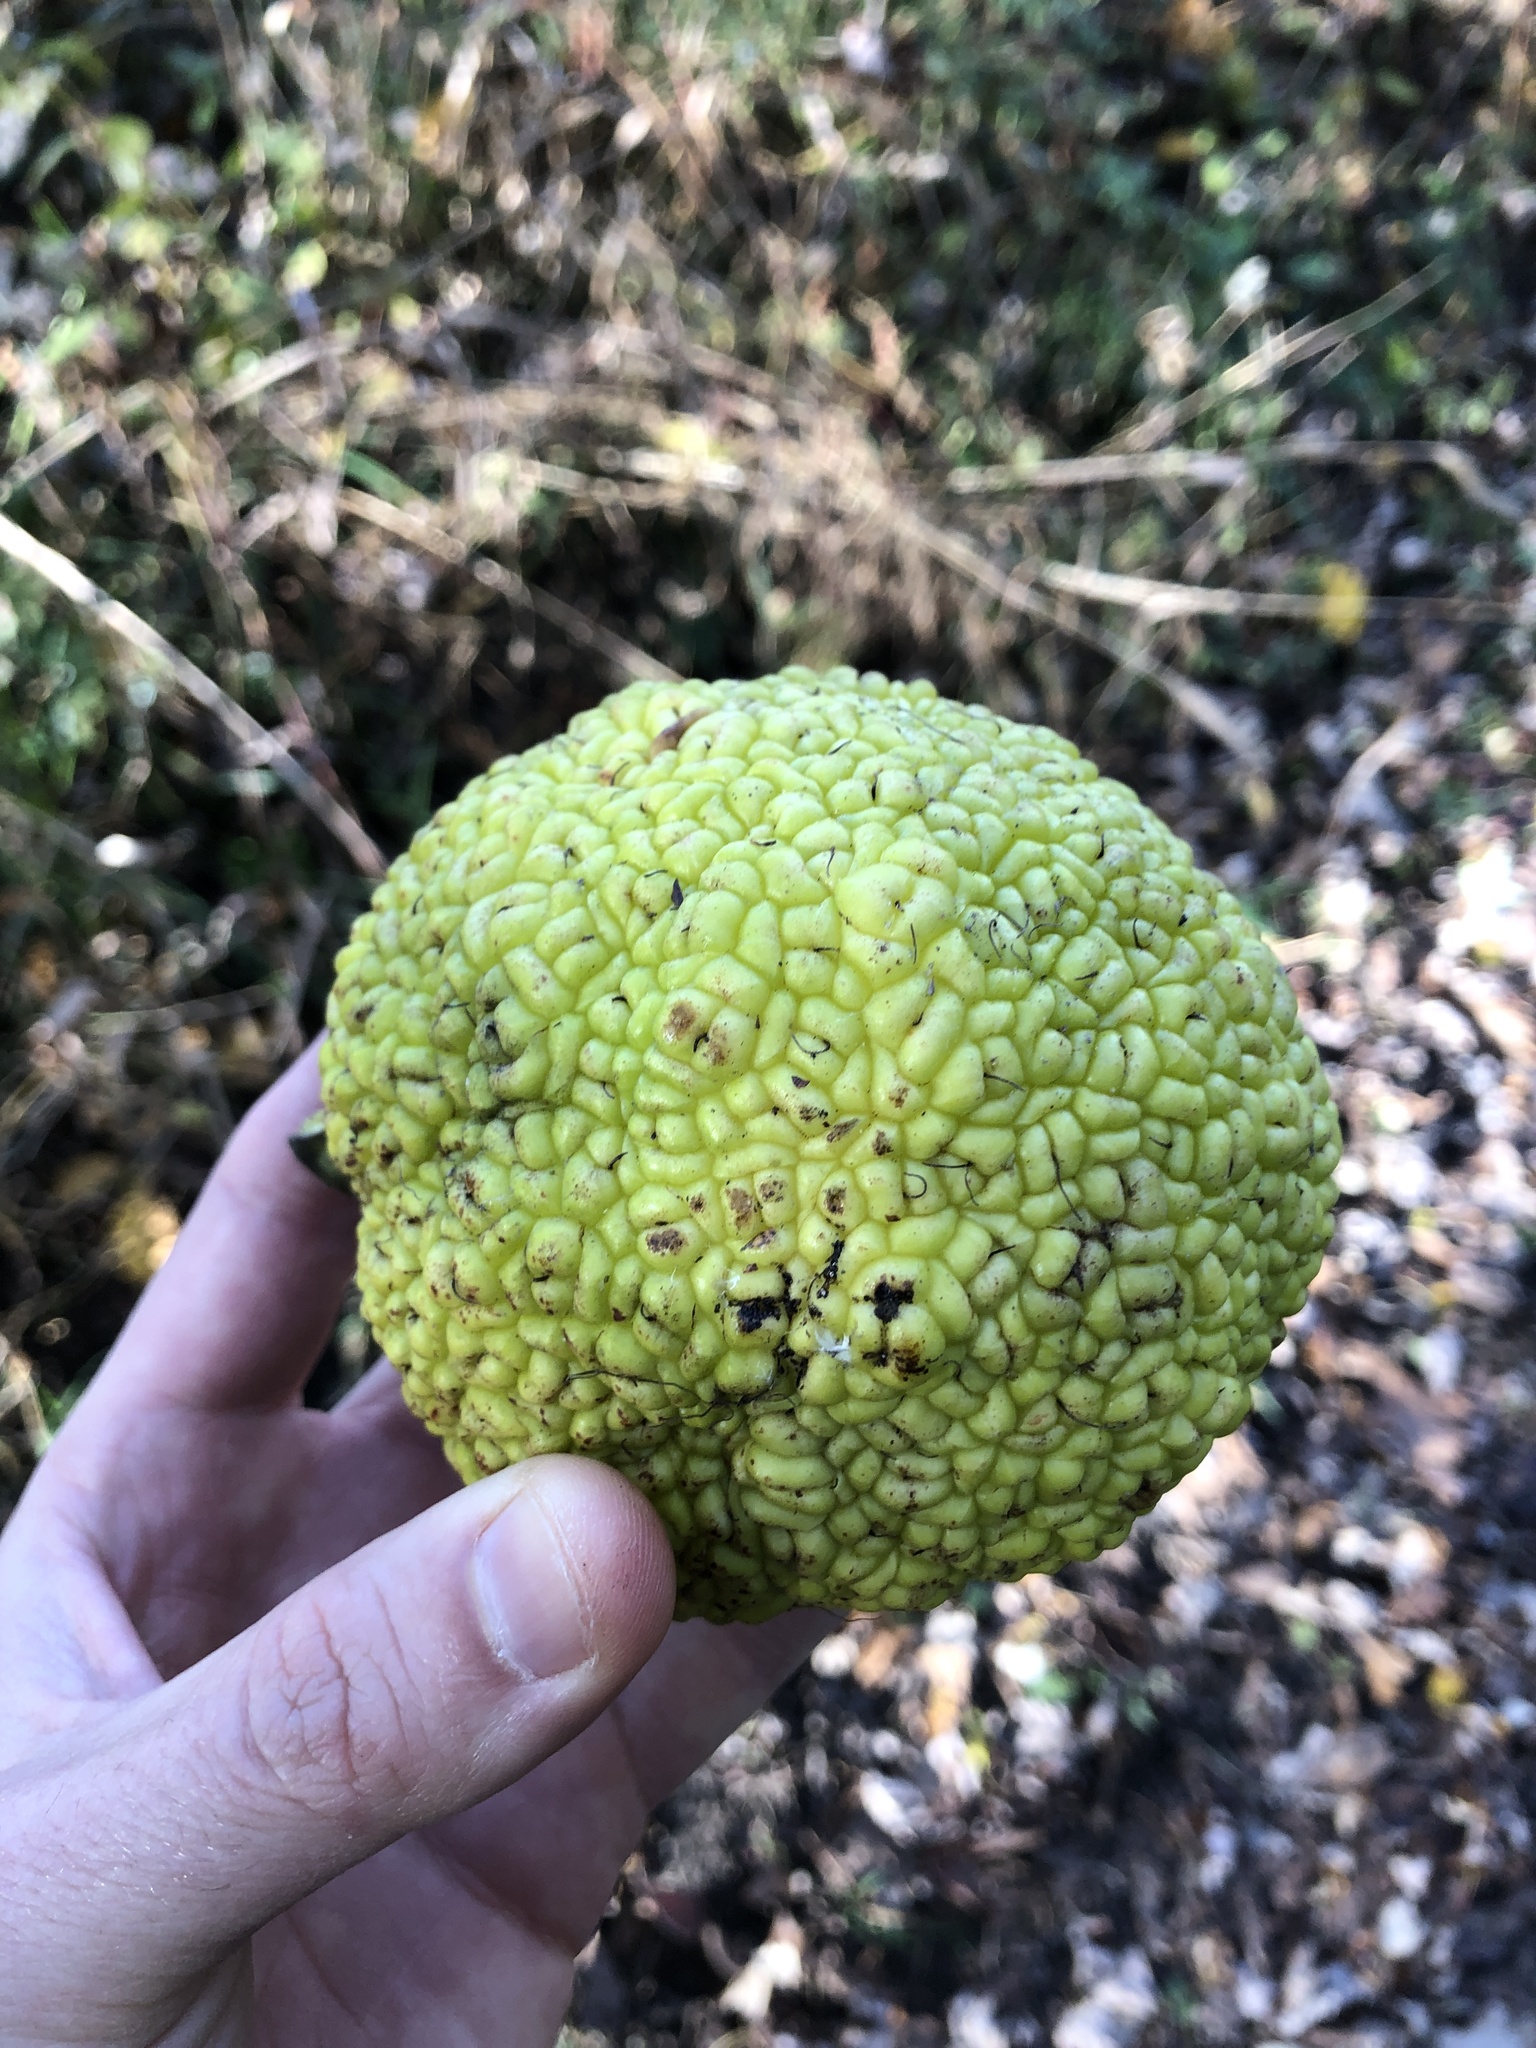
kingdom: Plantae
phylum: Tracheophyta
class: Magnoliopsida
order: Rosales
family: Moraceae
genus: Maclura
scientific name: Maclura pomifera
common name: Osage-orange
